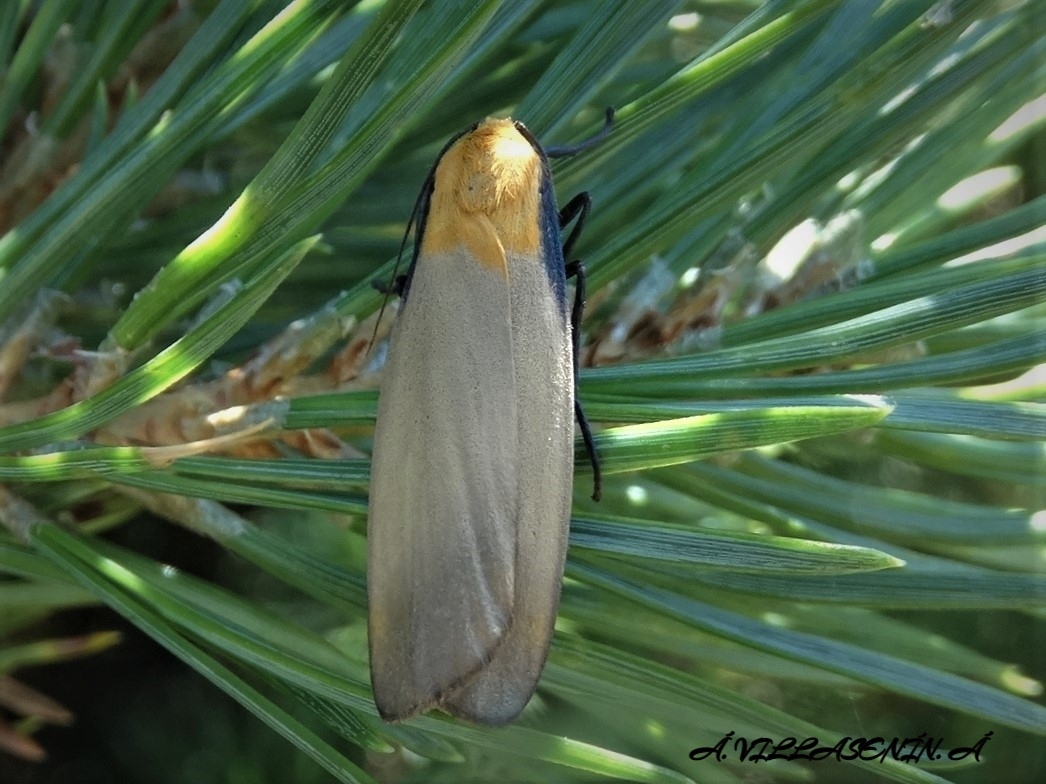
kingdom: Animalia
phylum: Arthropoda
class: Insecta
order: Lepidoptera
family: Erebidae
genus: Lithosia
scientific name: Lithosia quadra
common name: Four-spotted footman
